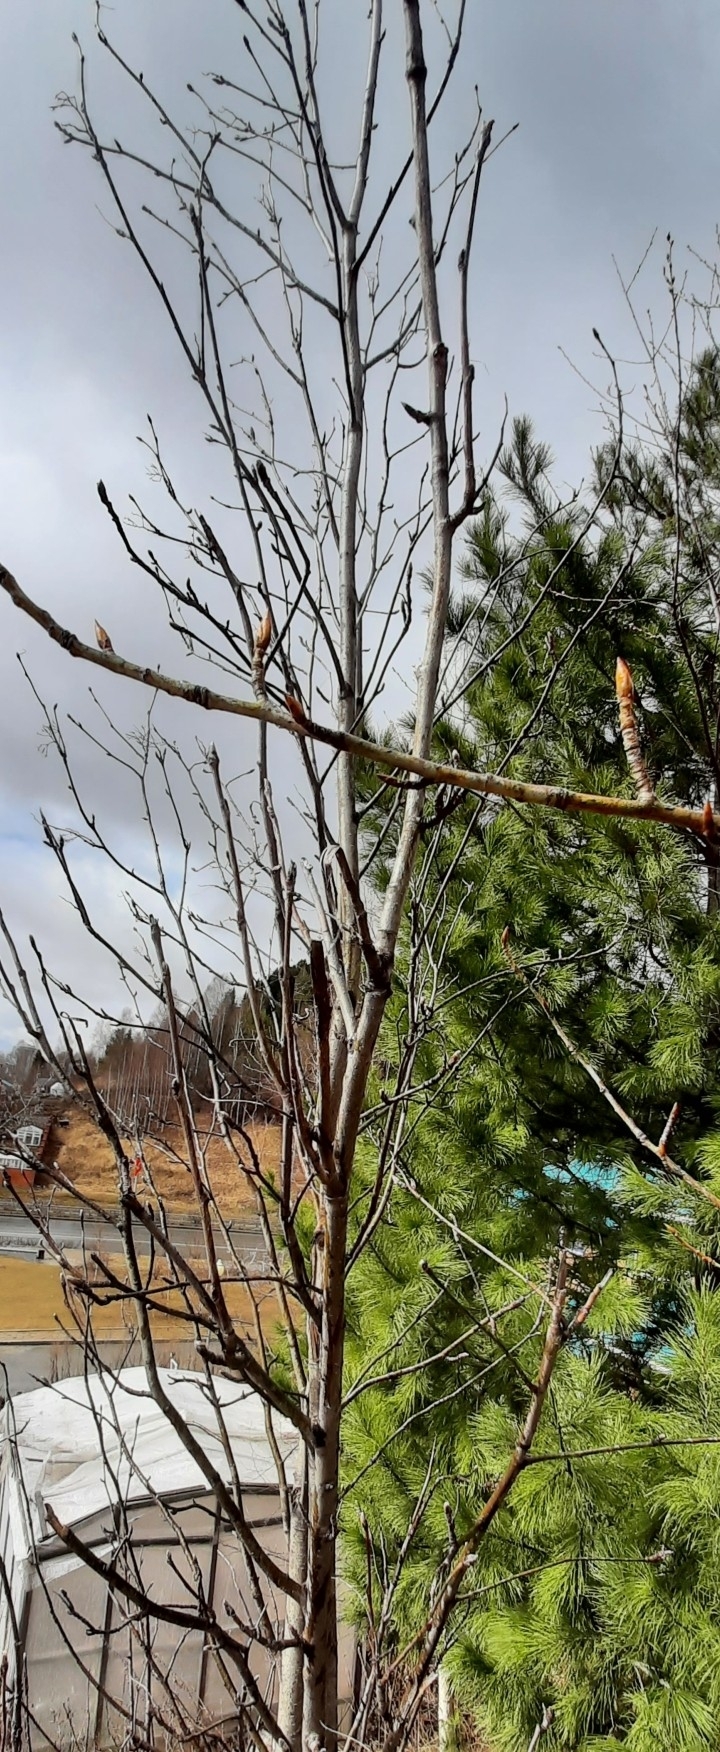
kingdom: Plantae
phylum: Tracheophyta
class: Magnoliopsida
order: Rosales
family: Rosaceae
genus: Sorbus
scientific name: Sorbus aucuparia
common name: Rowan
